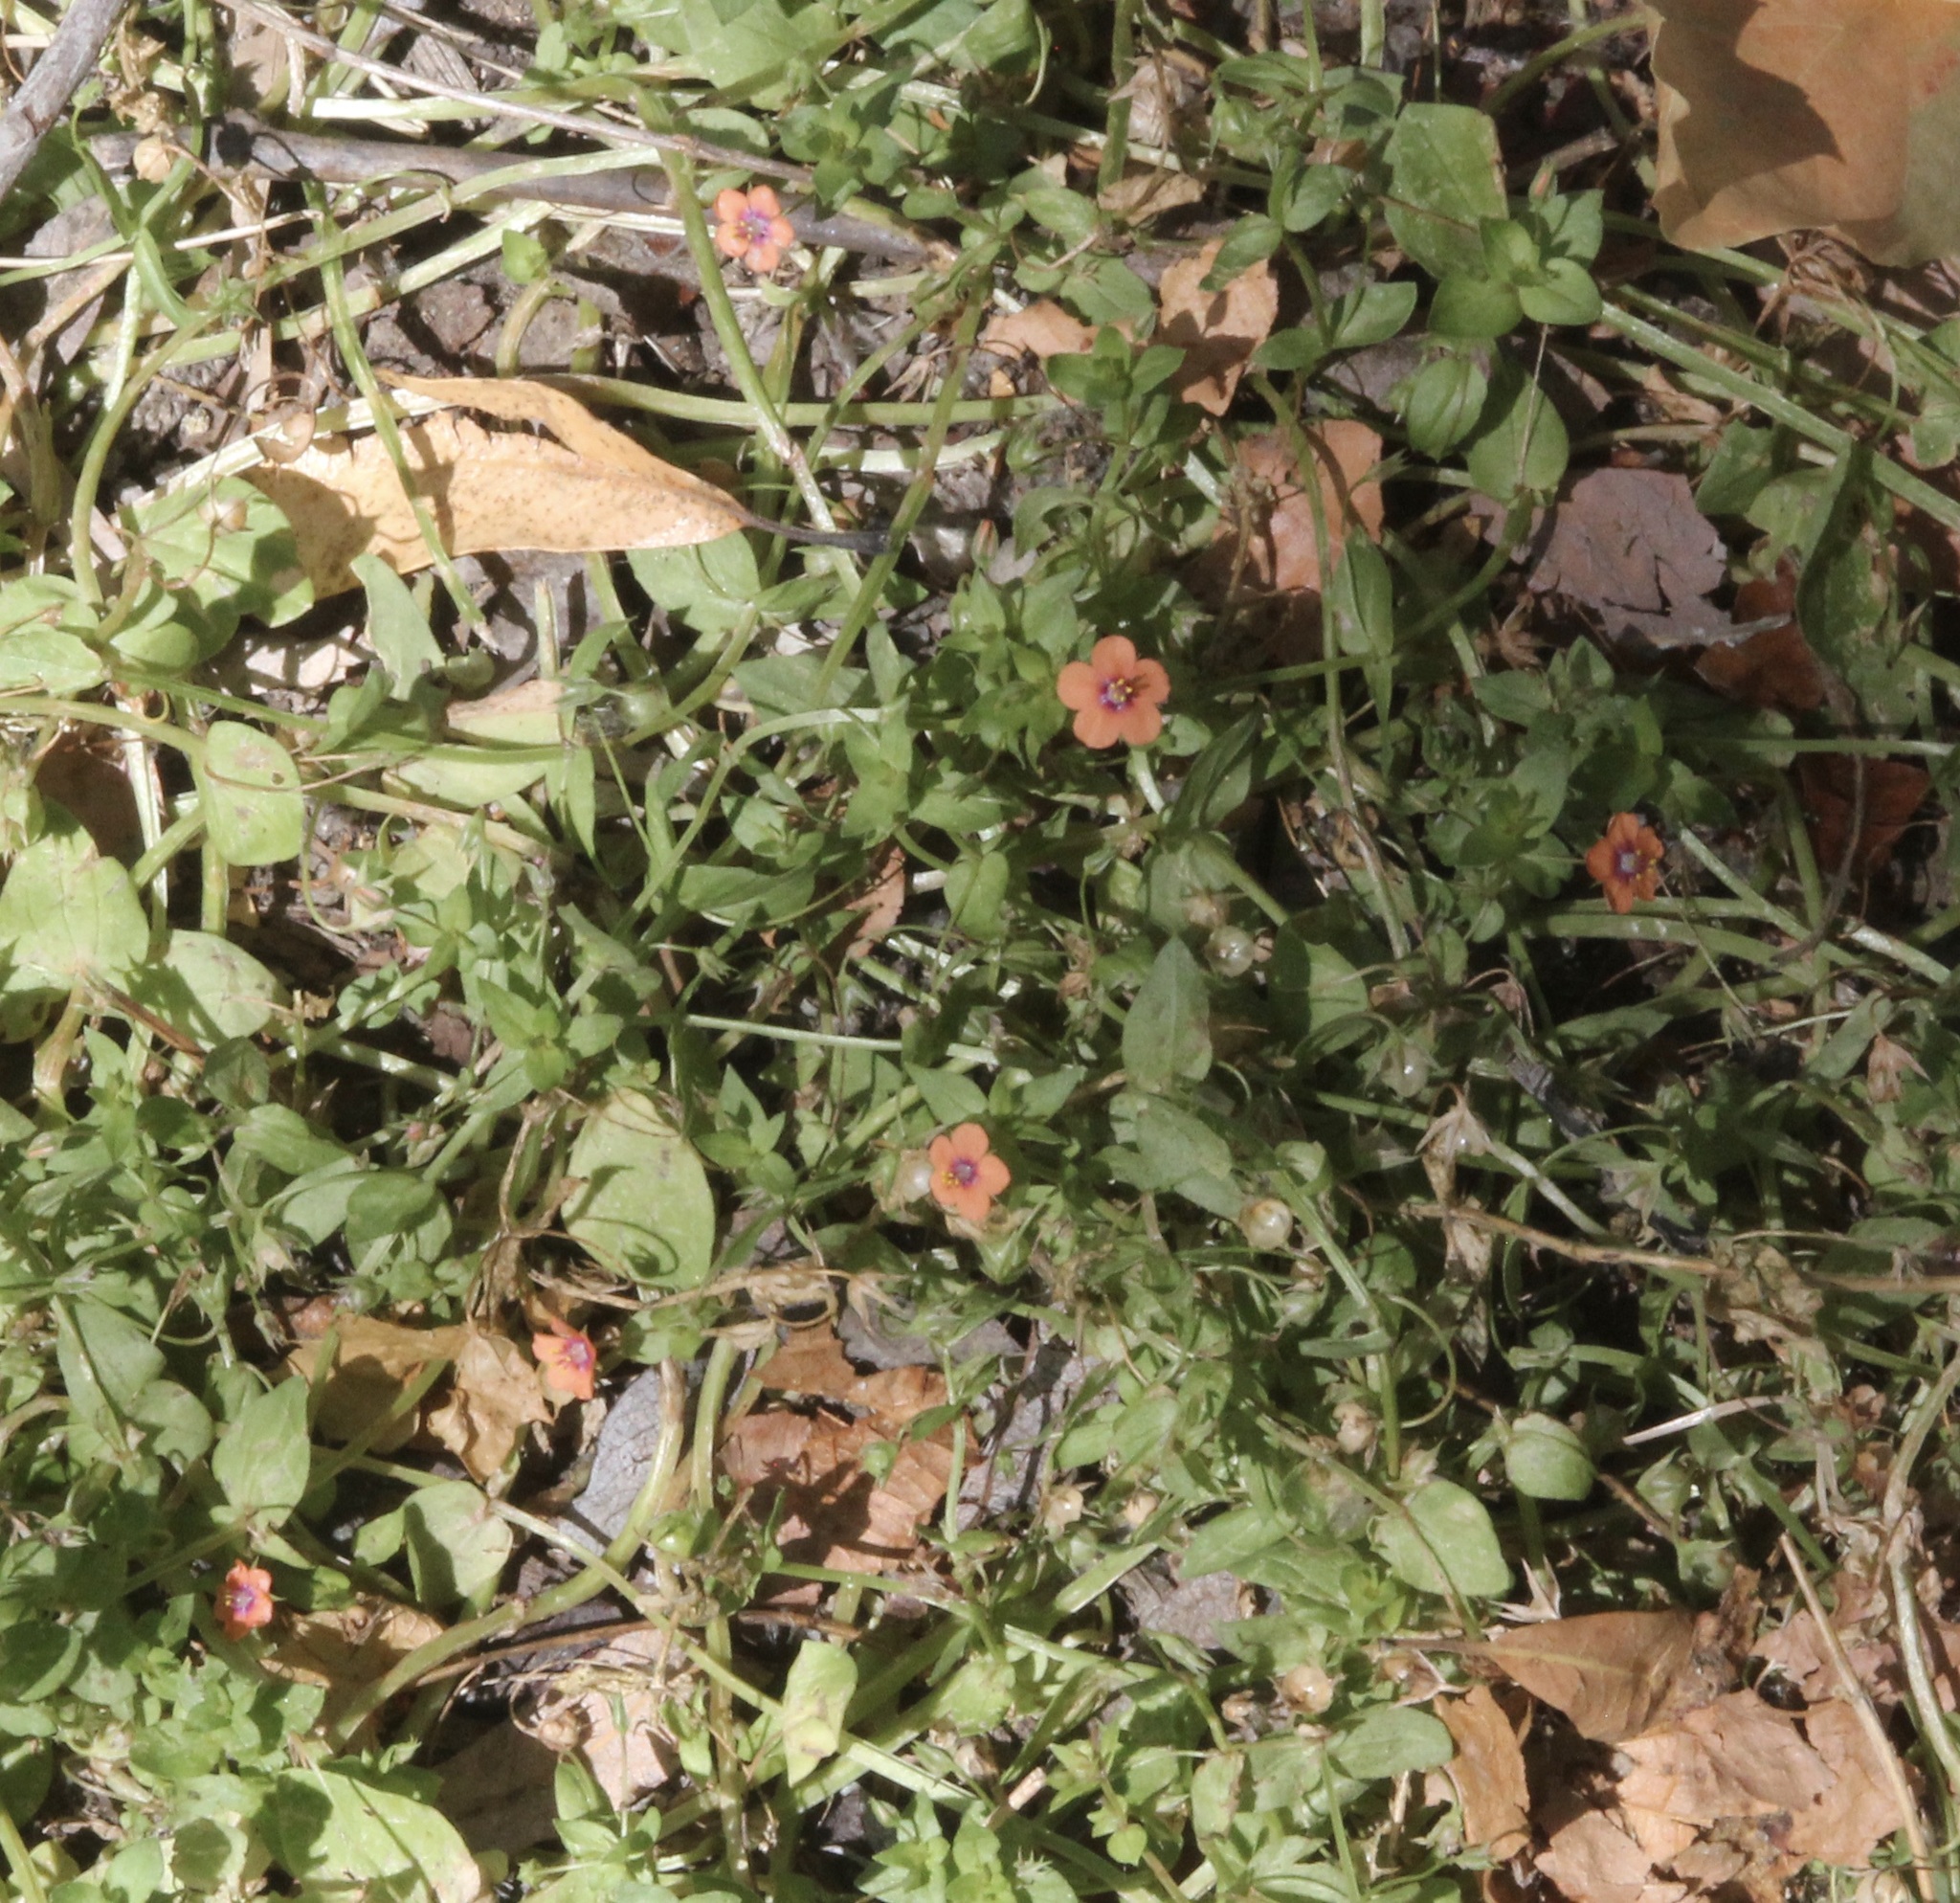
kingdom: Plantae
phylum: Tracheophyta
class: Magnoliopsida
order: Ericales
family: Primulaceae
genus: Lysimachia
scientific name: Lysimachia arvensis
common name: Scarlet pimpernel
